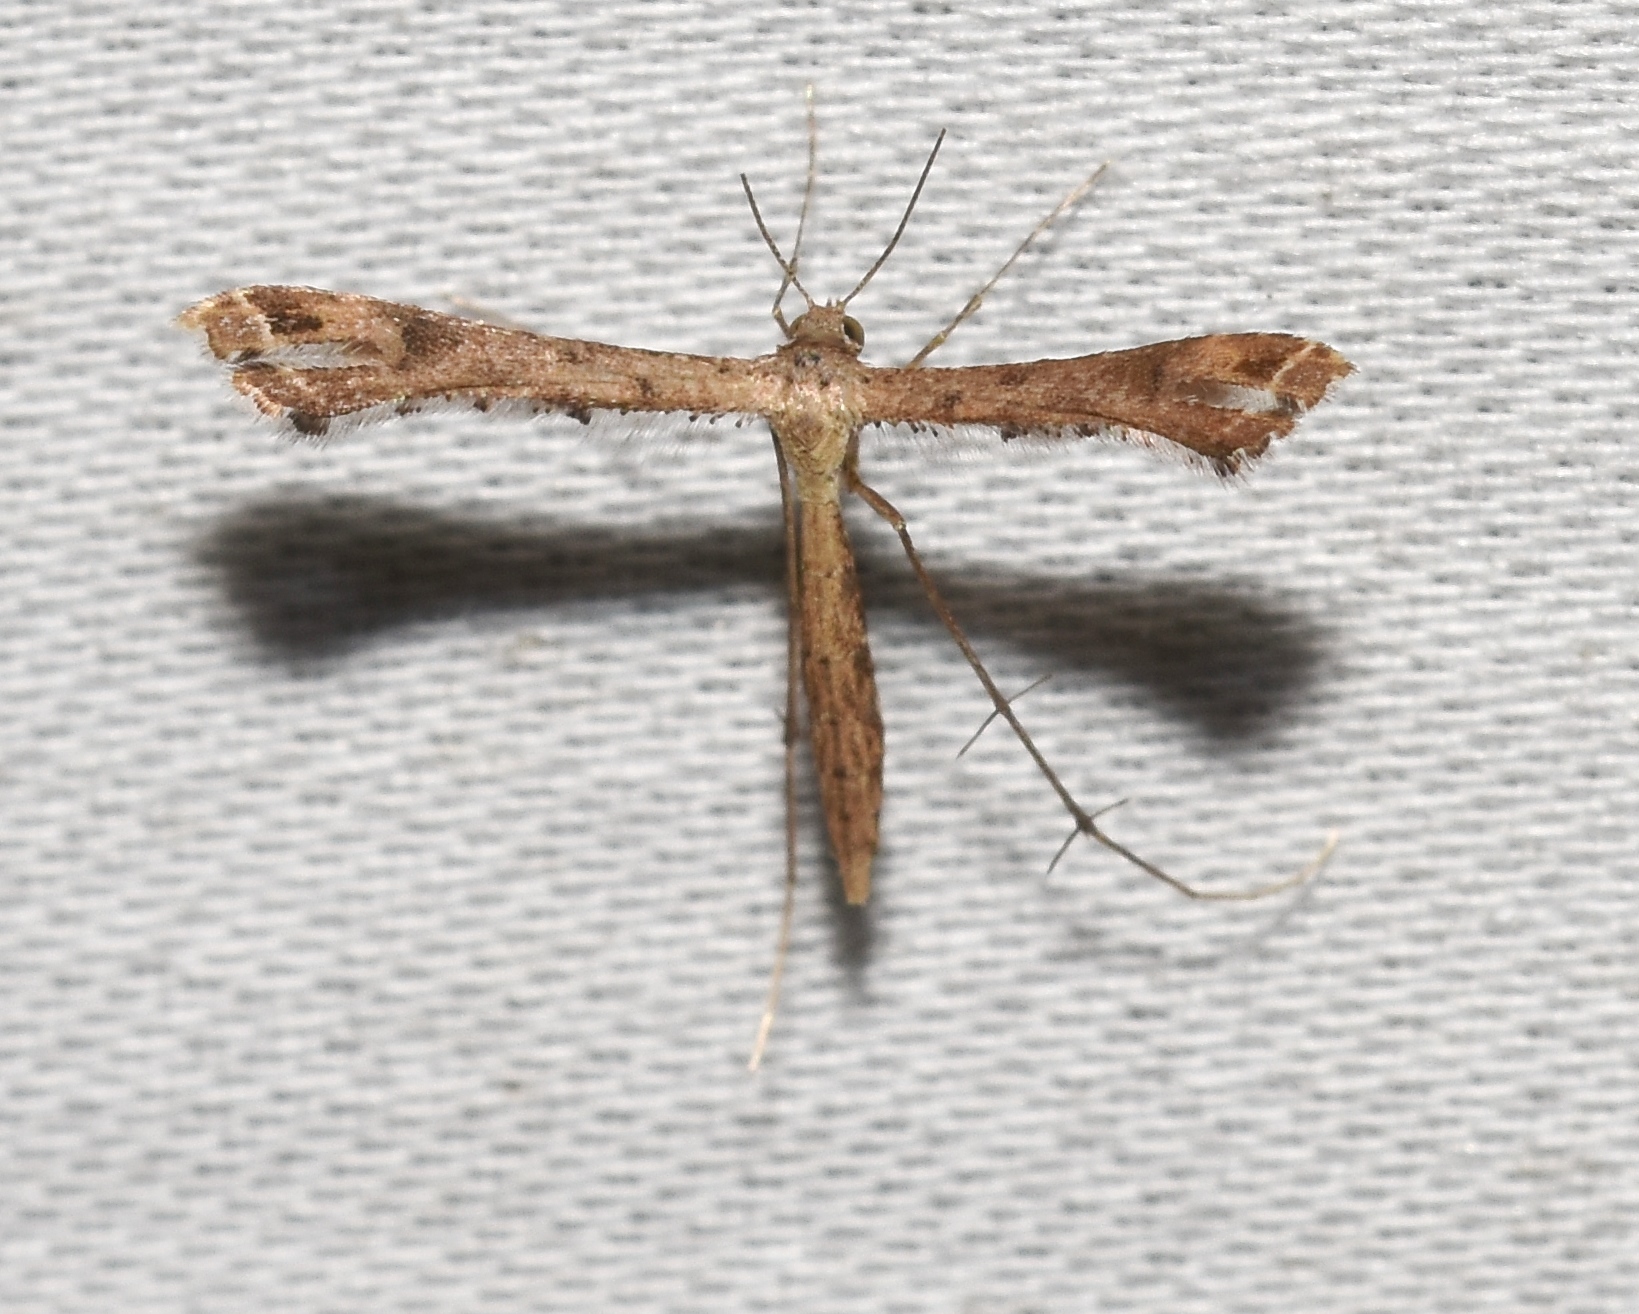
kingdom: Animalia
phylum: Arthropoda
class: Insecta
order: Lepidoptera
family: Pterophoridae
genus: Stenoptilodes
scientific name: Stenoptilodes taprobanes
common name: Moth
